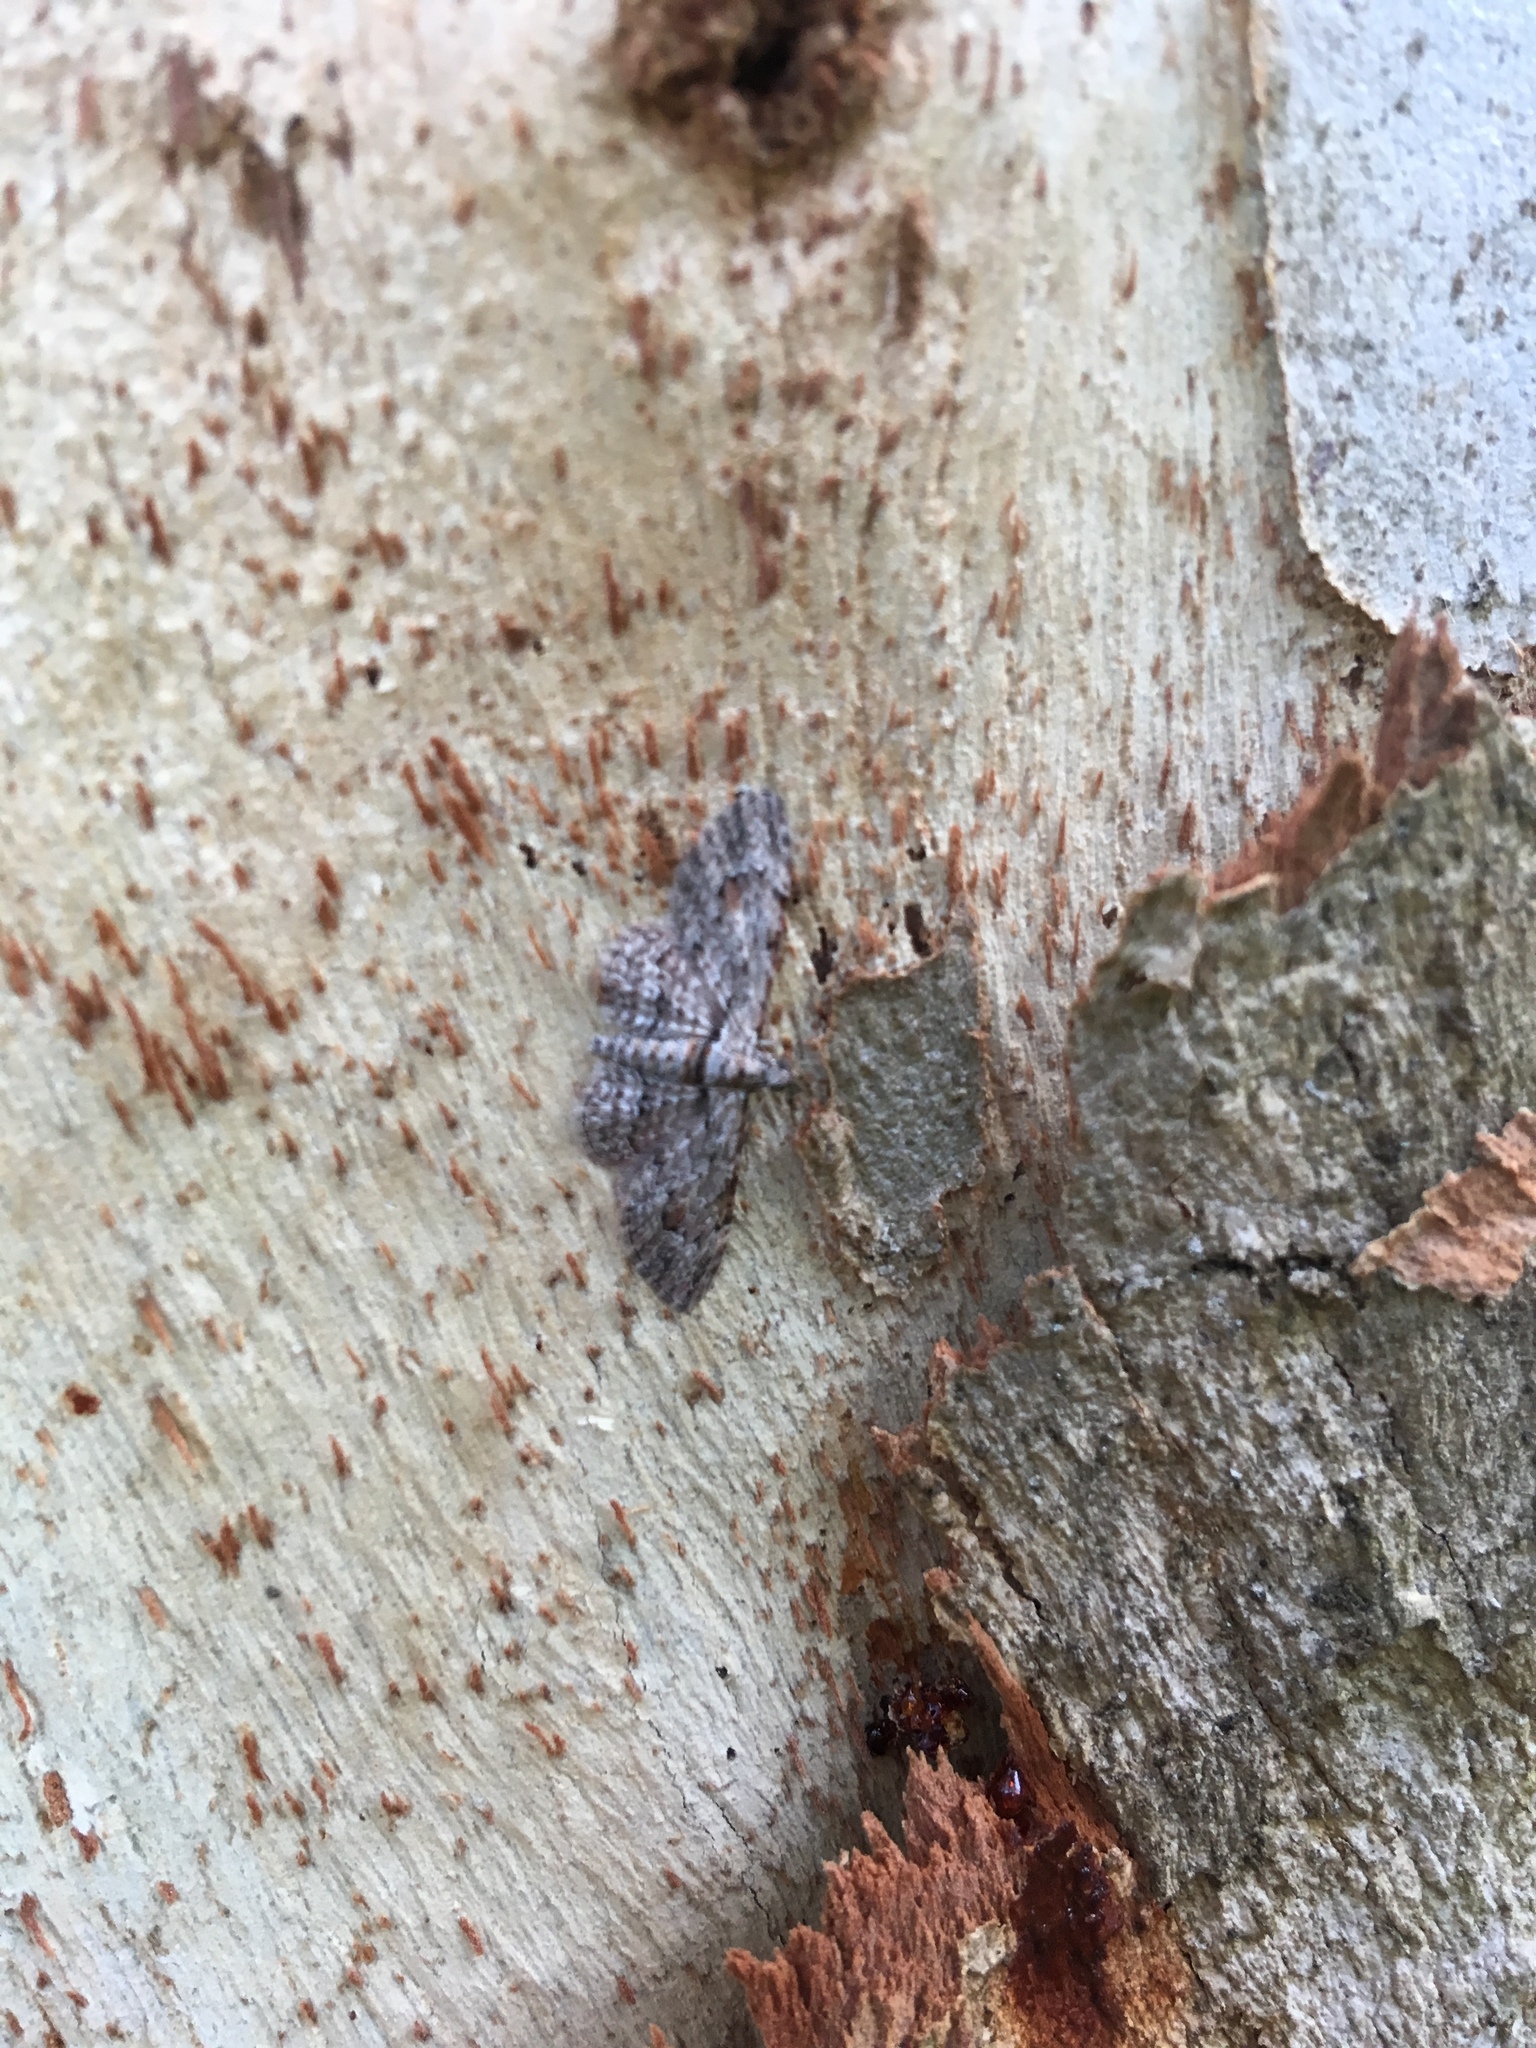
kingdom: Animalia
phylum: Arthropoda
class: Insecta
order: Lepidoptera
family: Geometridae
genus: Chloroclystis
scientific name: Chloroclystis insigillata
